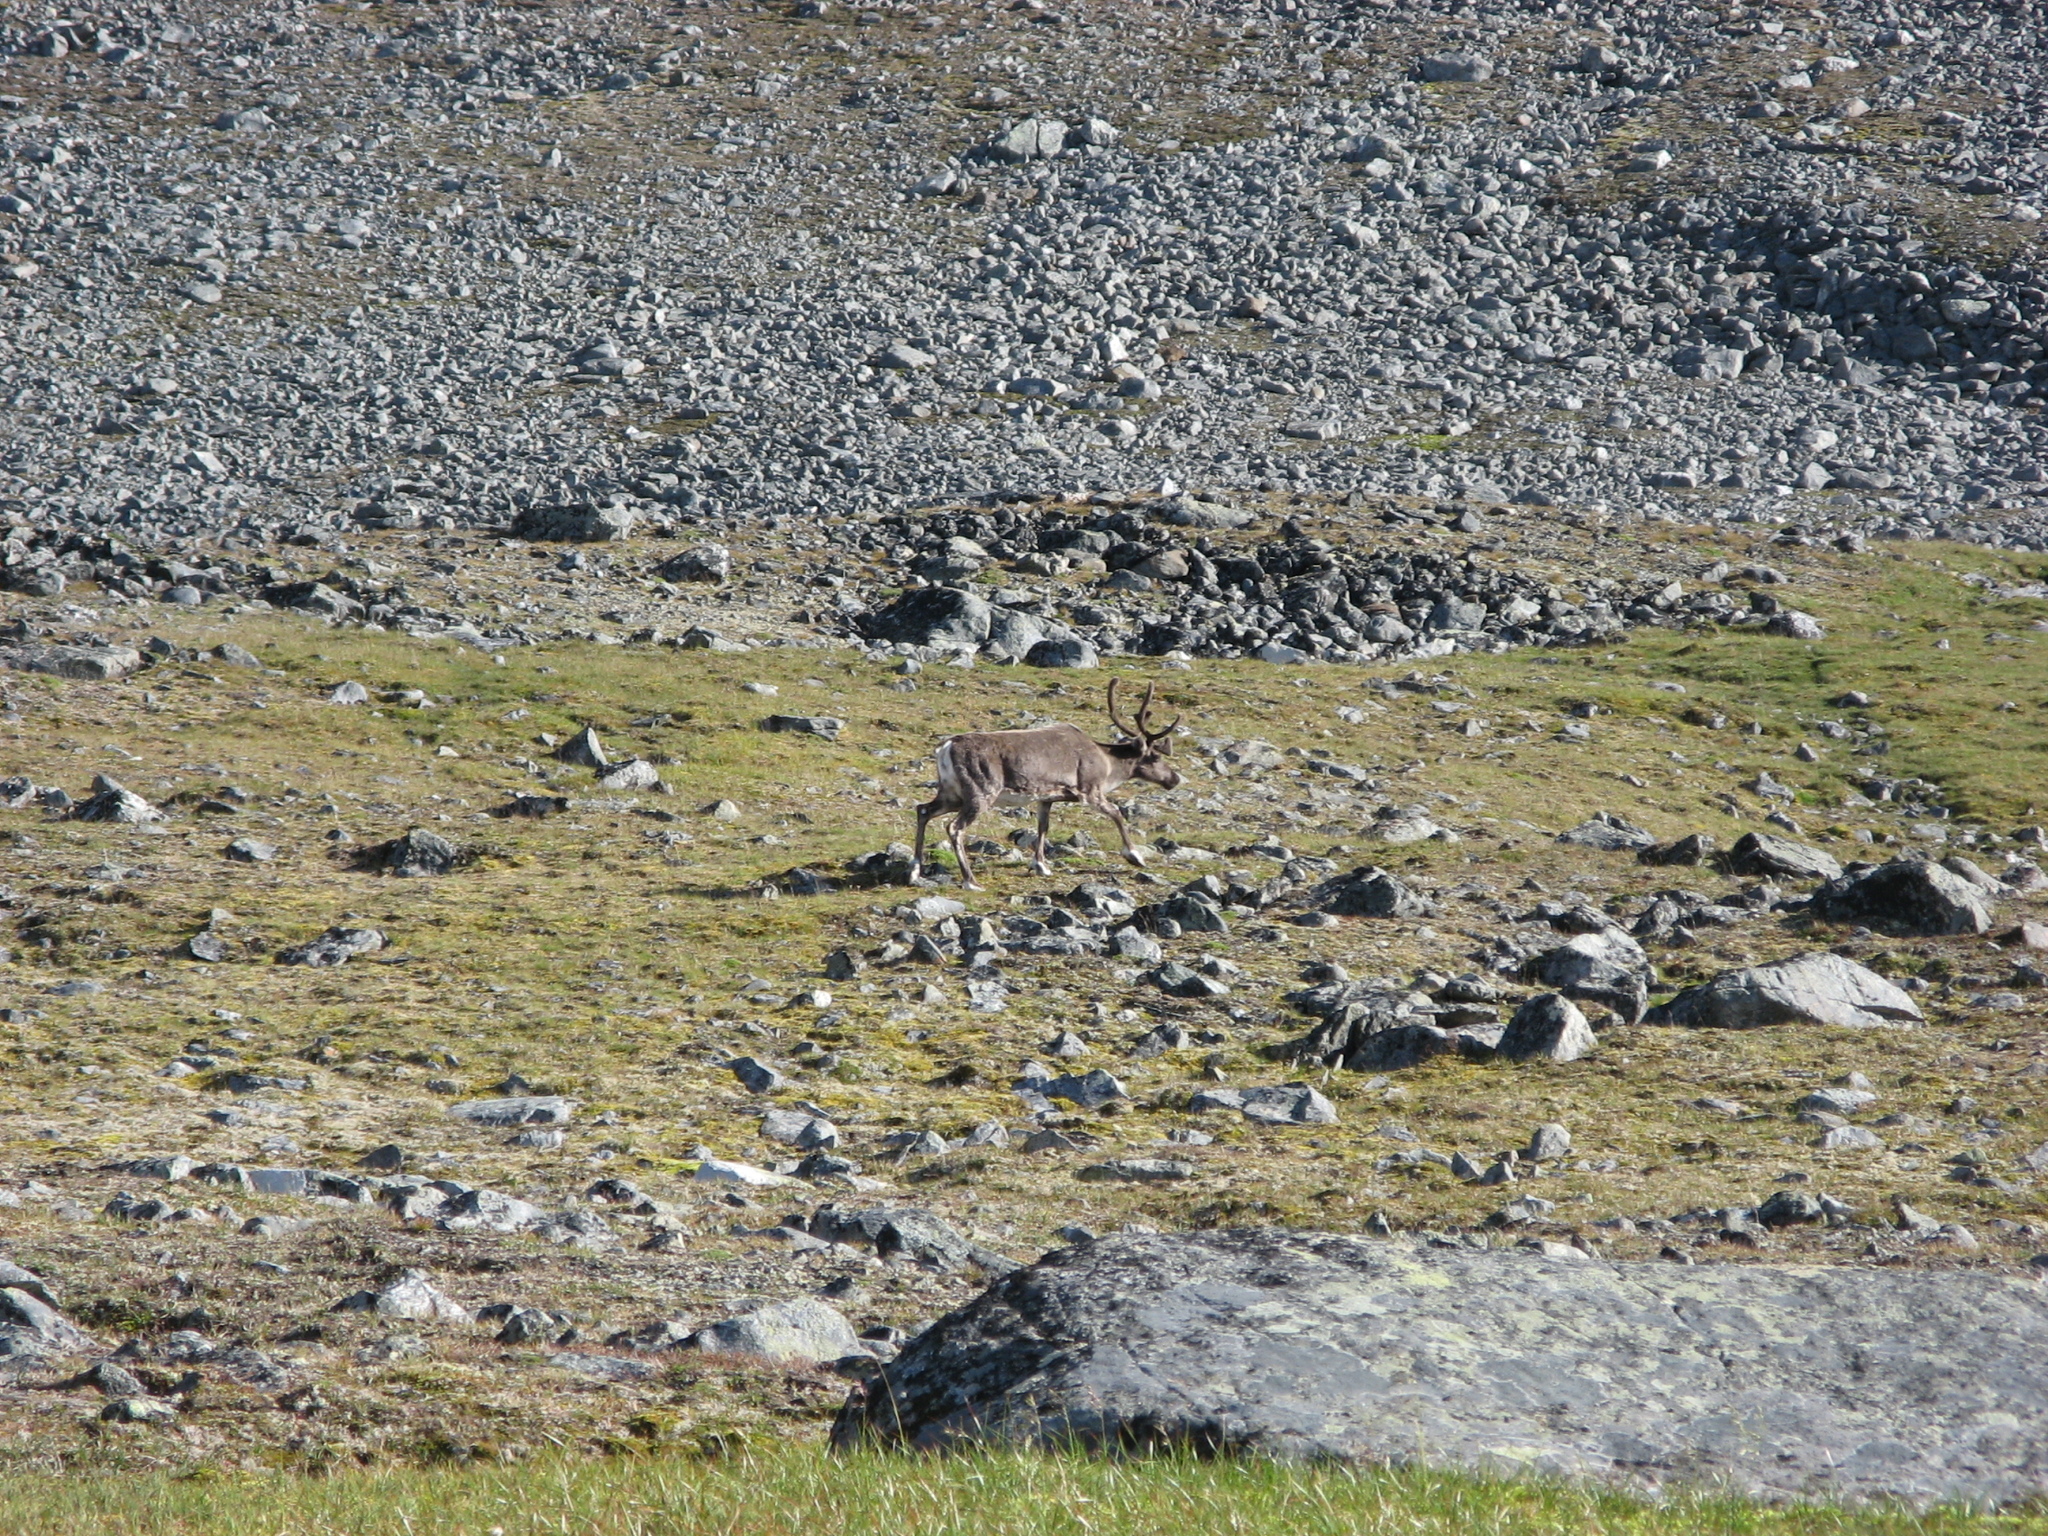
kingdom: Animalia
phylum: Chordata
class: Mammalia
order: Artiodactyla
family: Cervidae
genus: Rangifer
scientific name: Rangifer tarandus
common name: Reindeer
